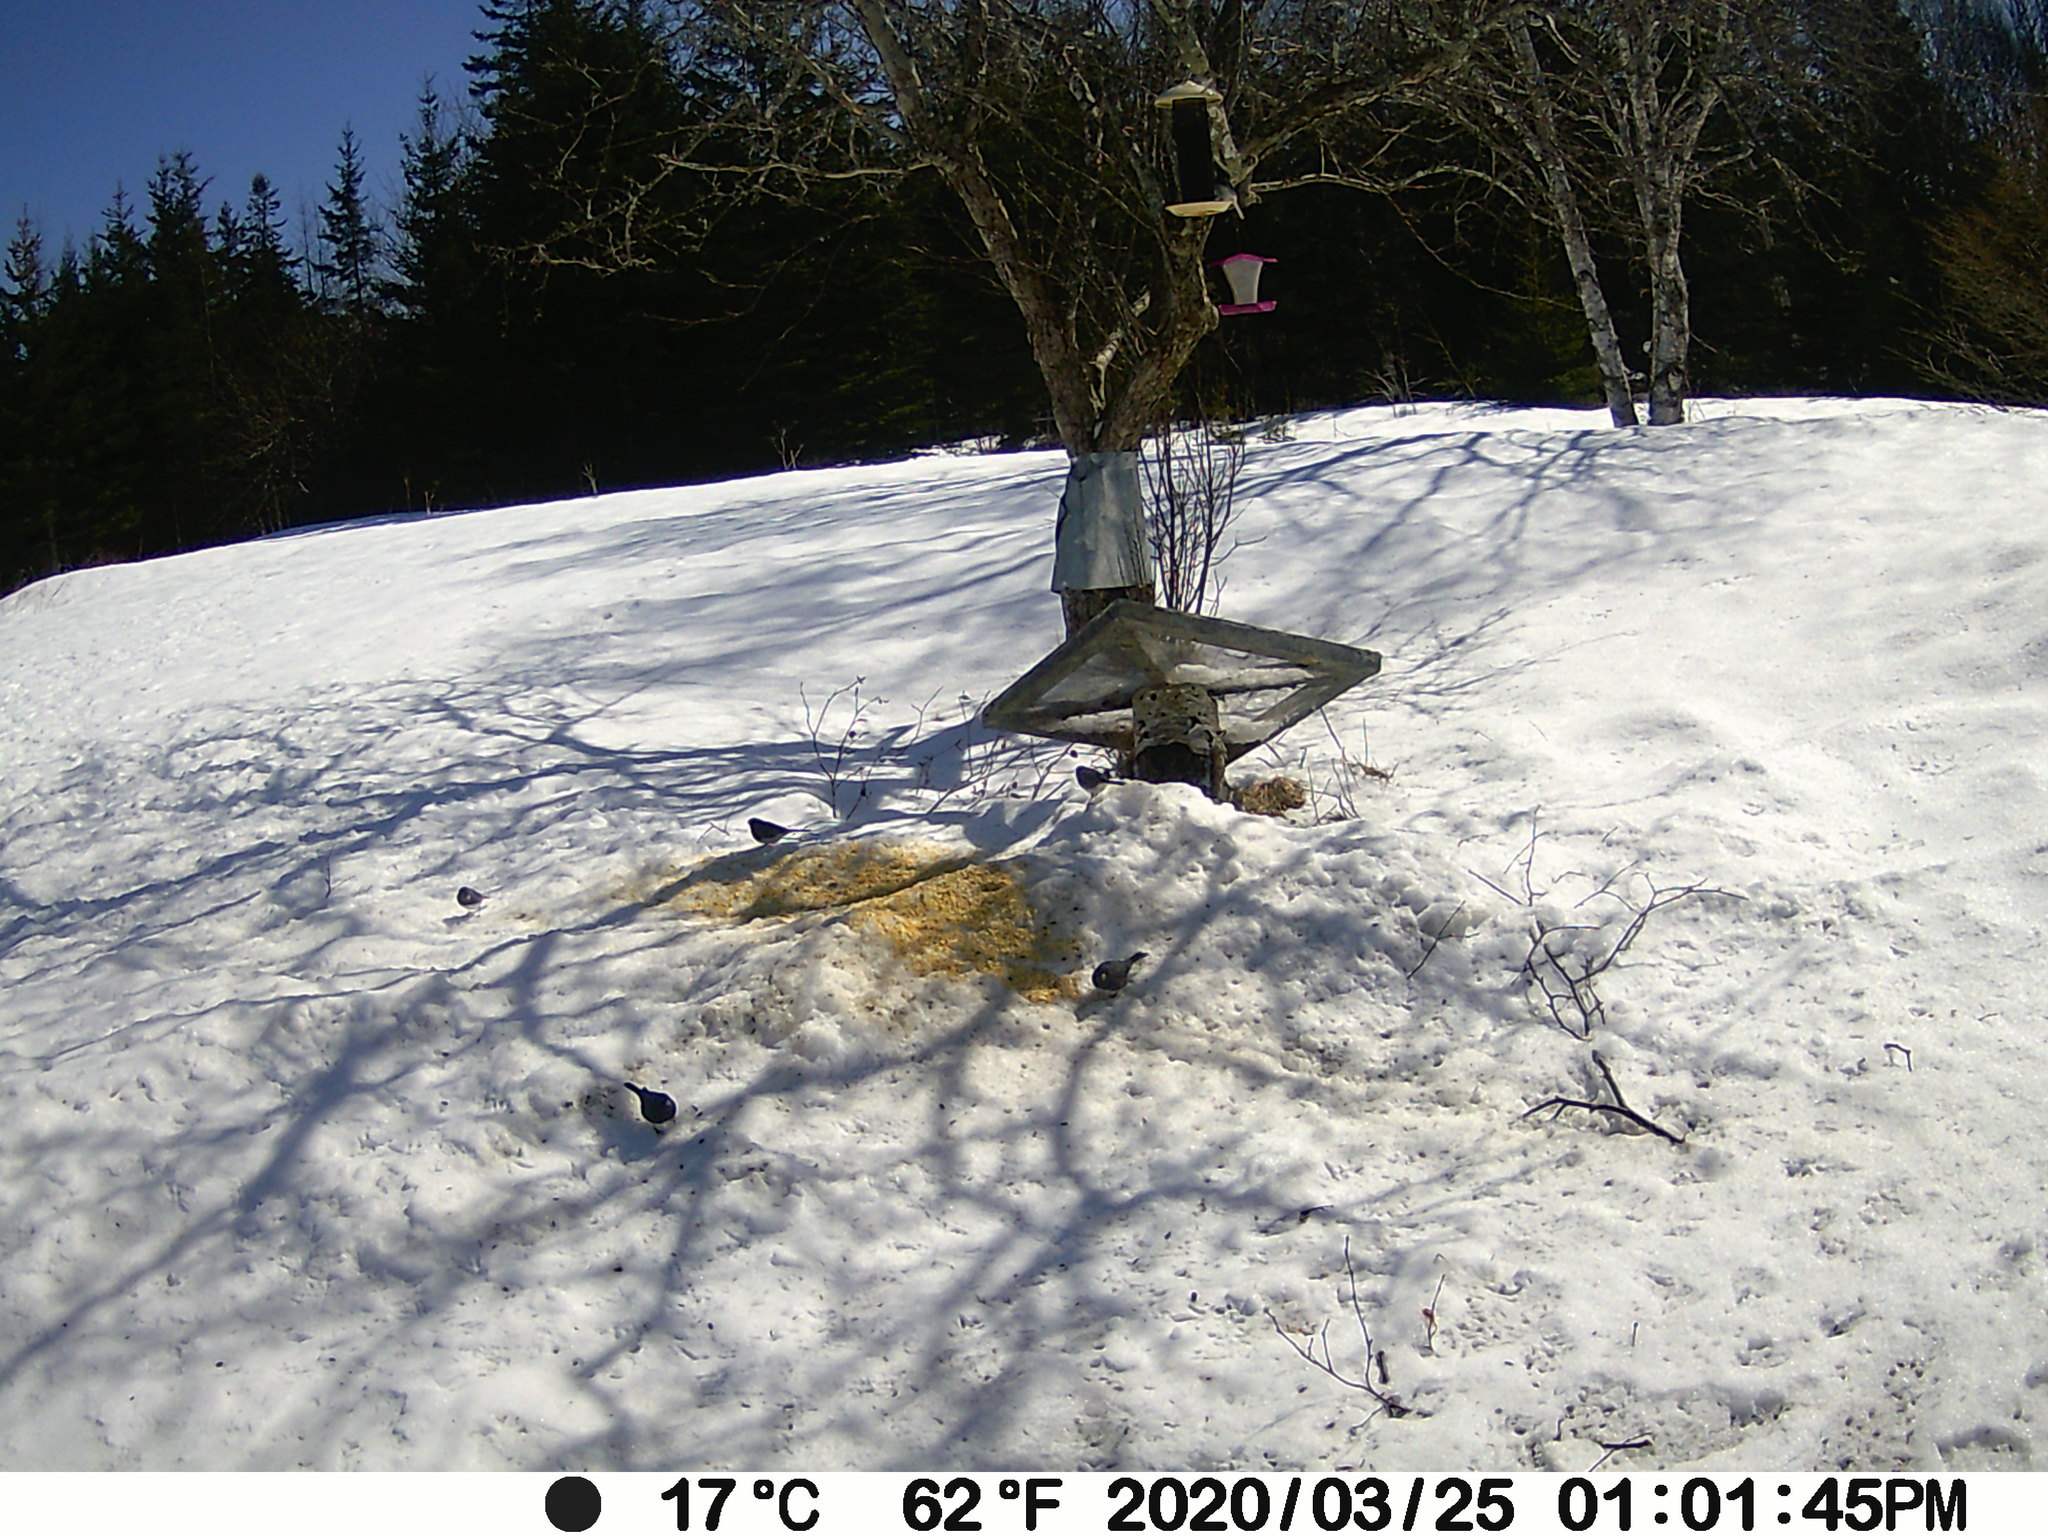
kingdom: Animalia
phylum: Chordata
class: Aves
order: Passeriformes
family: Passerellidae
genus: Junco
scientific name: Junco hyemalis
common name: Dark-eyed junco
